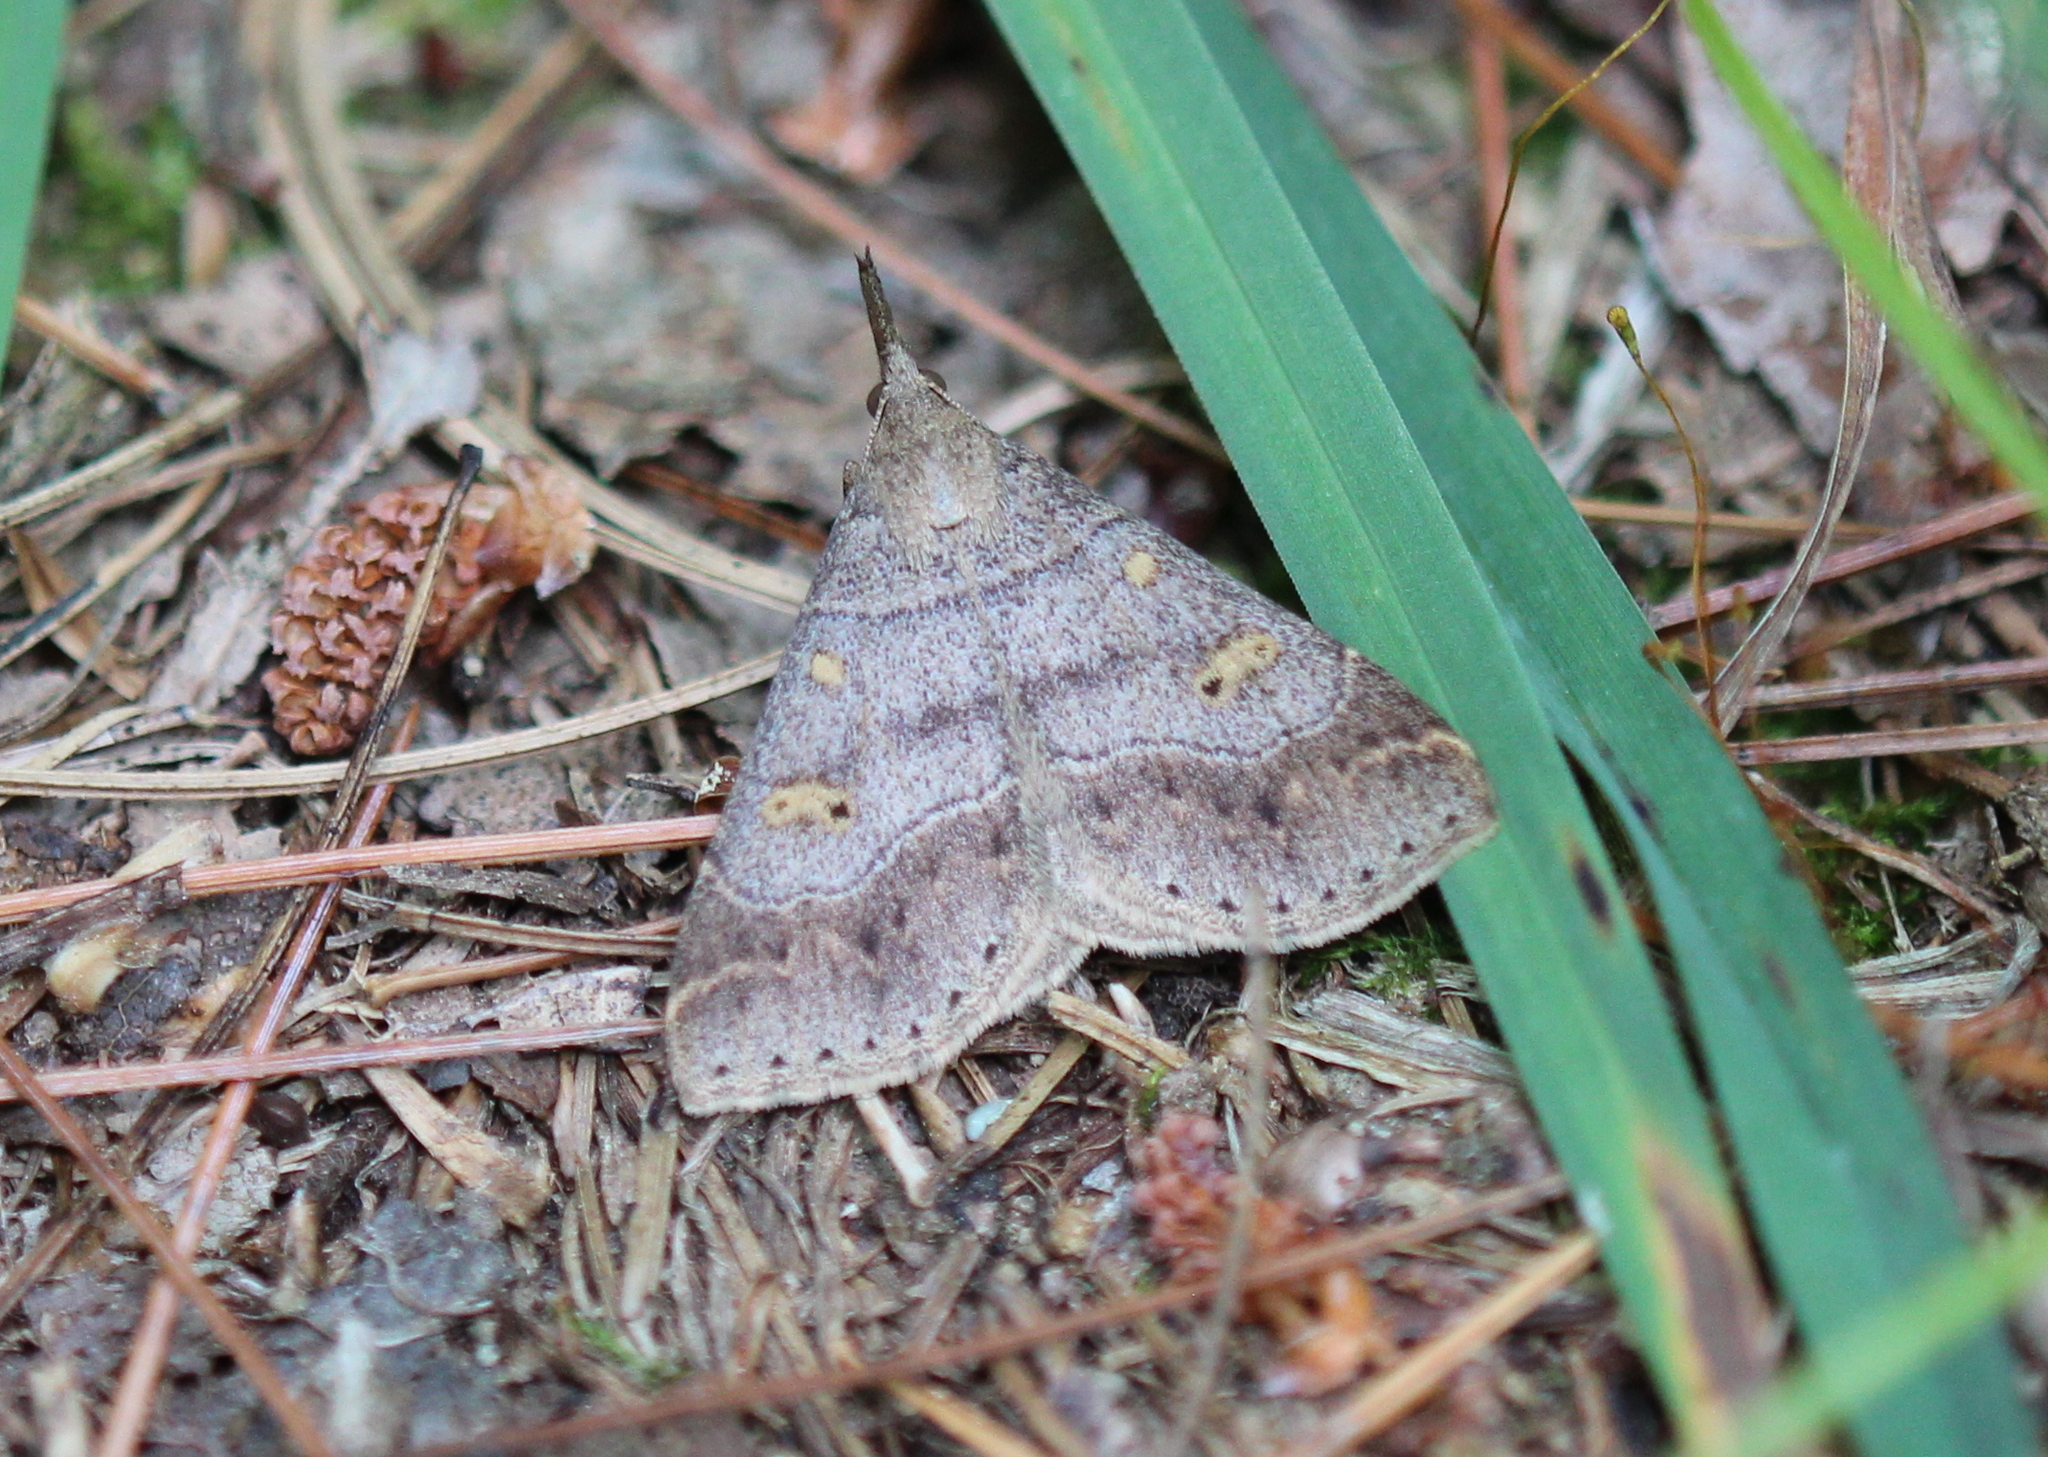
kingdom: Animalia
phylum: Arthropoda
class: Insecta
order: Lepidoptera
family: Erebidae
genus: Renia
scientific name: Renia flavipunctalis
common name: Yellow-spotted renia moth
